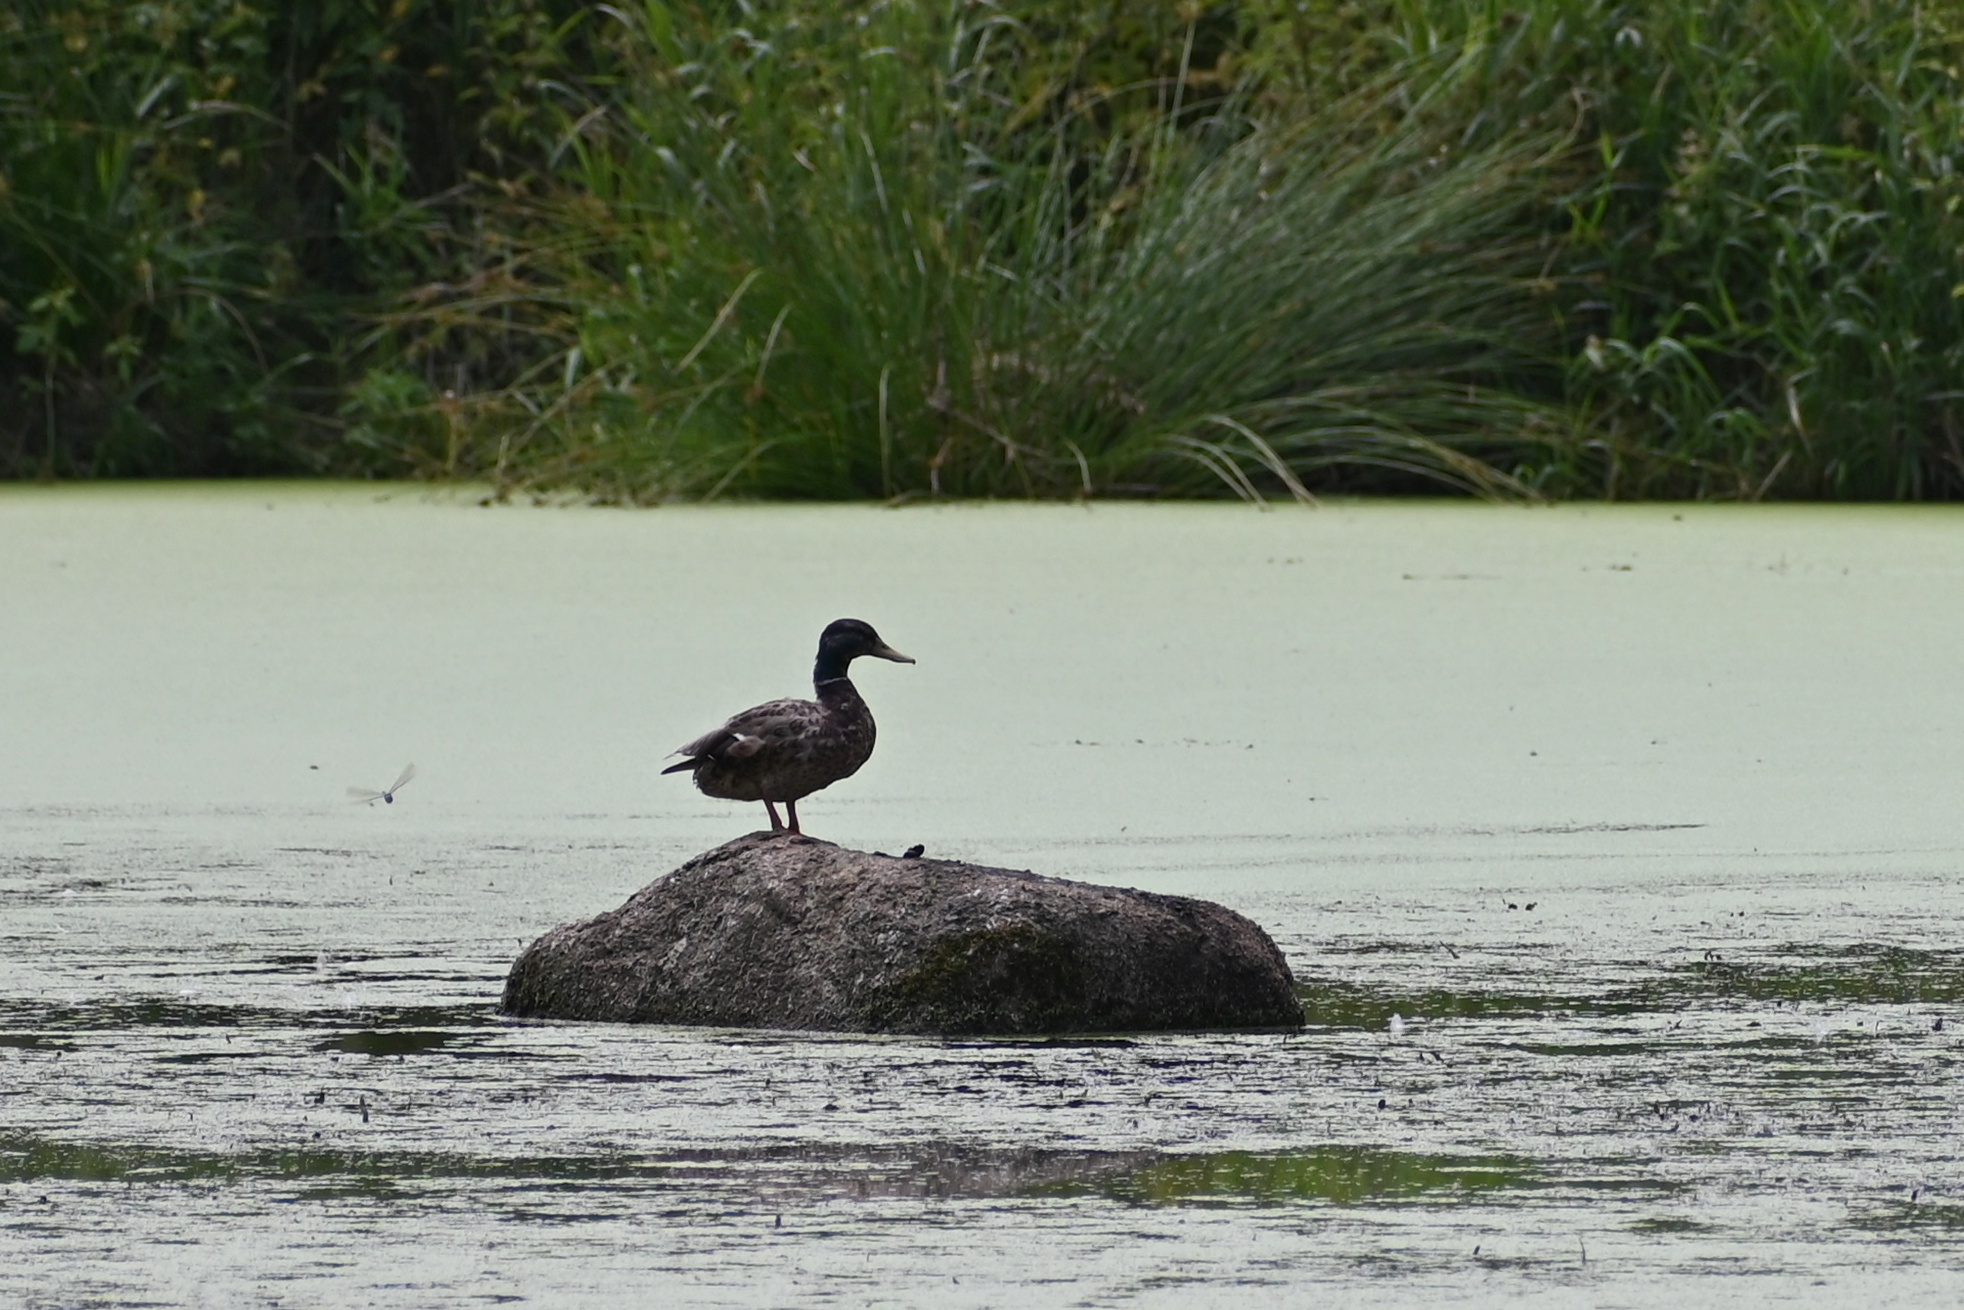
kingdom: Animalia
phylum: Chordata
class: Aves
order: Anseriformes
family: Anatidae
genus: Anas
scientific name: Anas platyrhynchos
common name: Mallard
